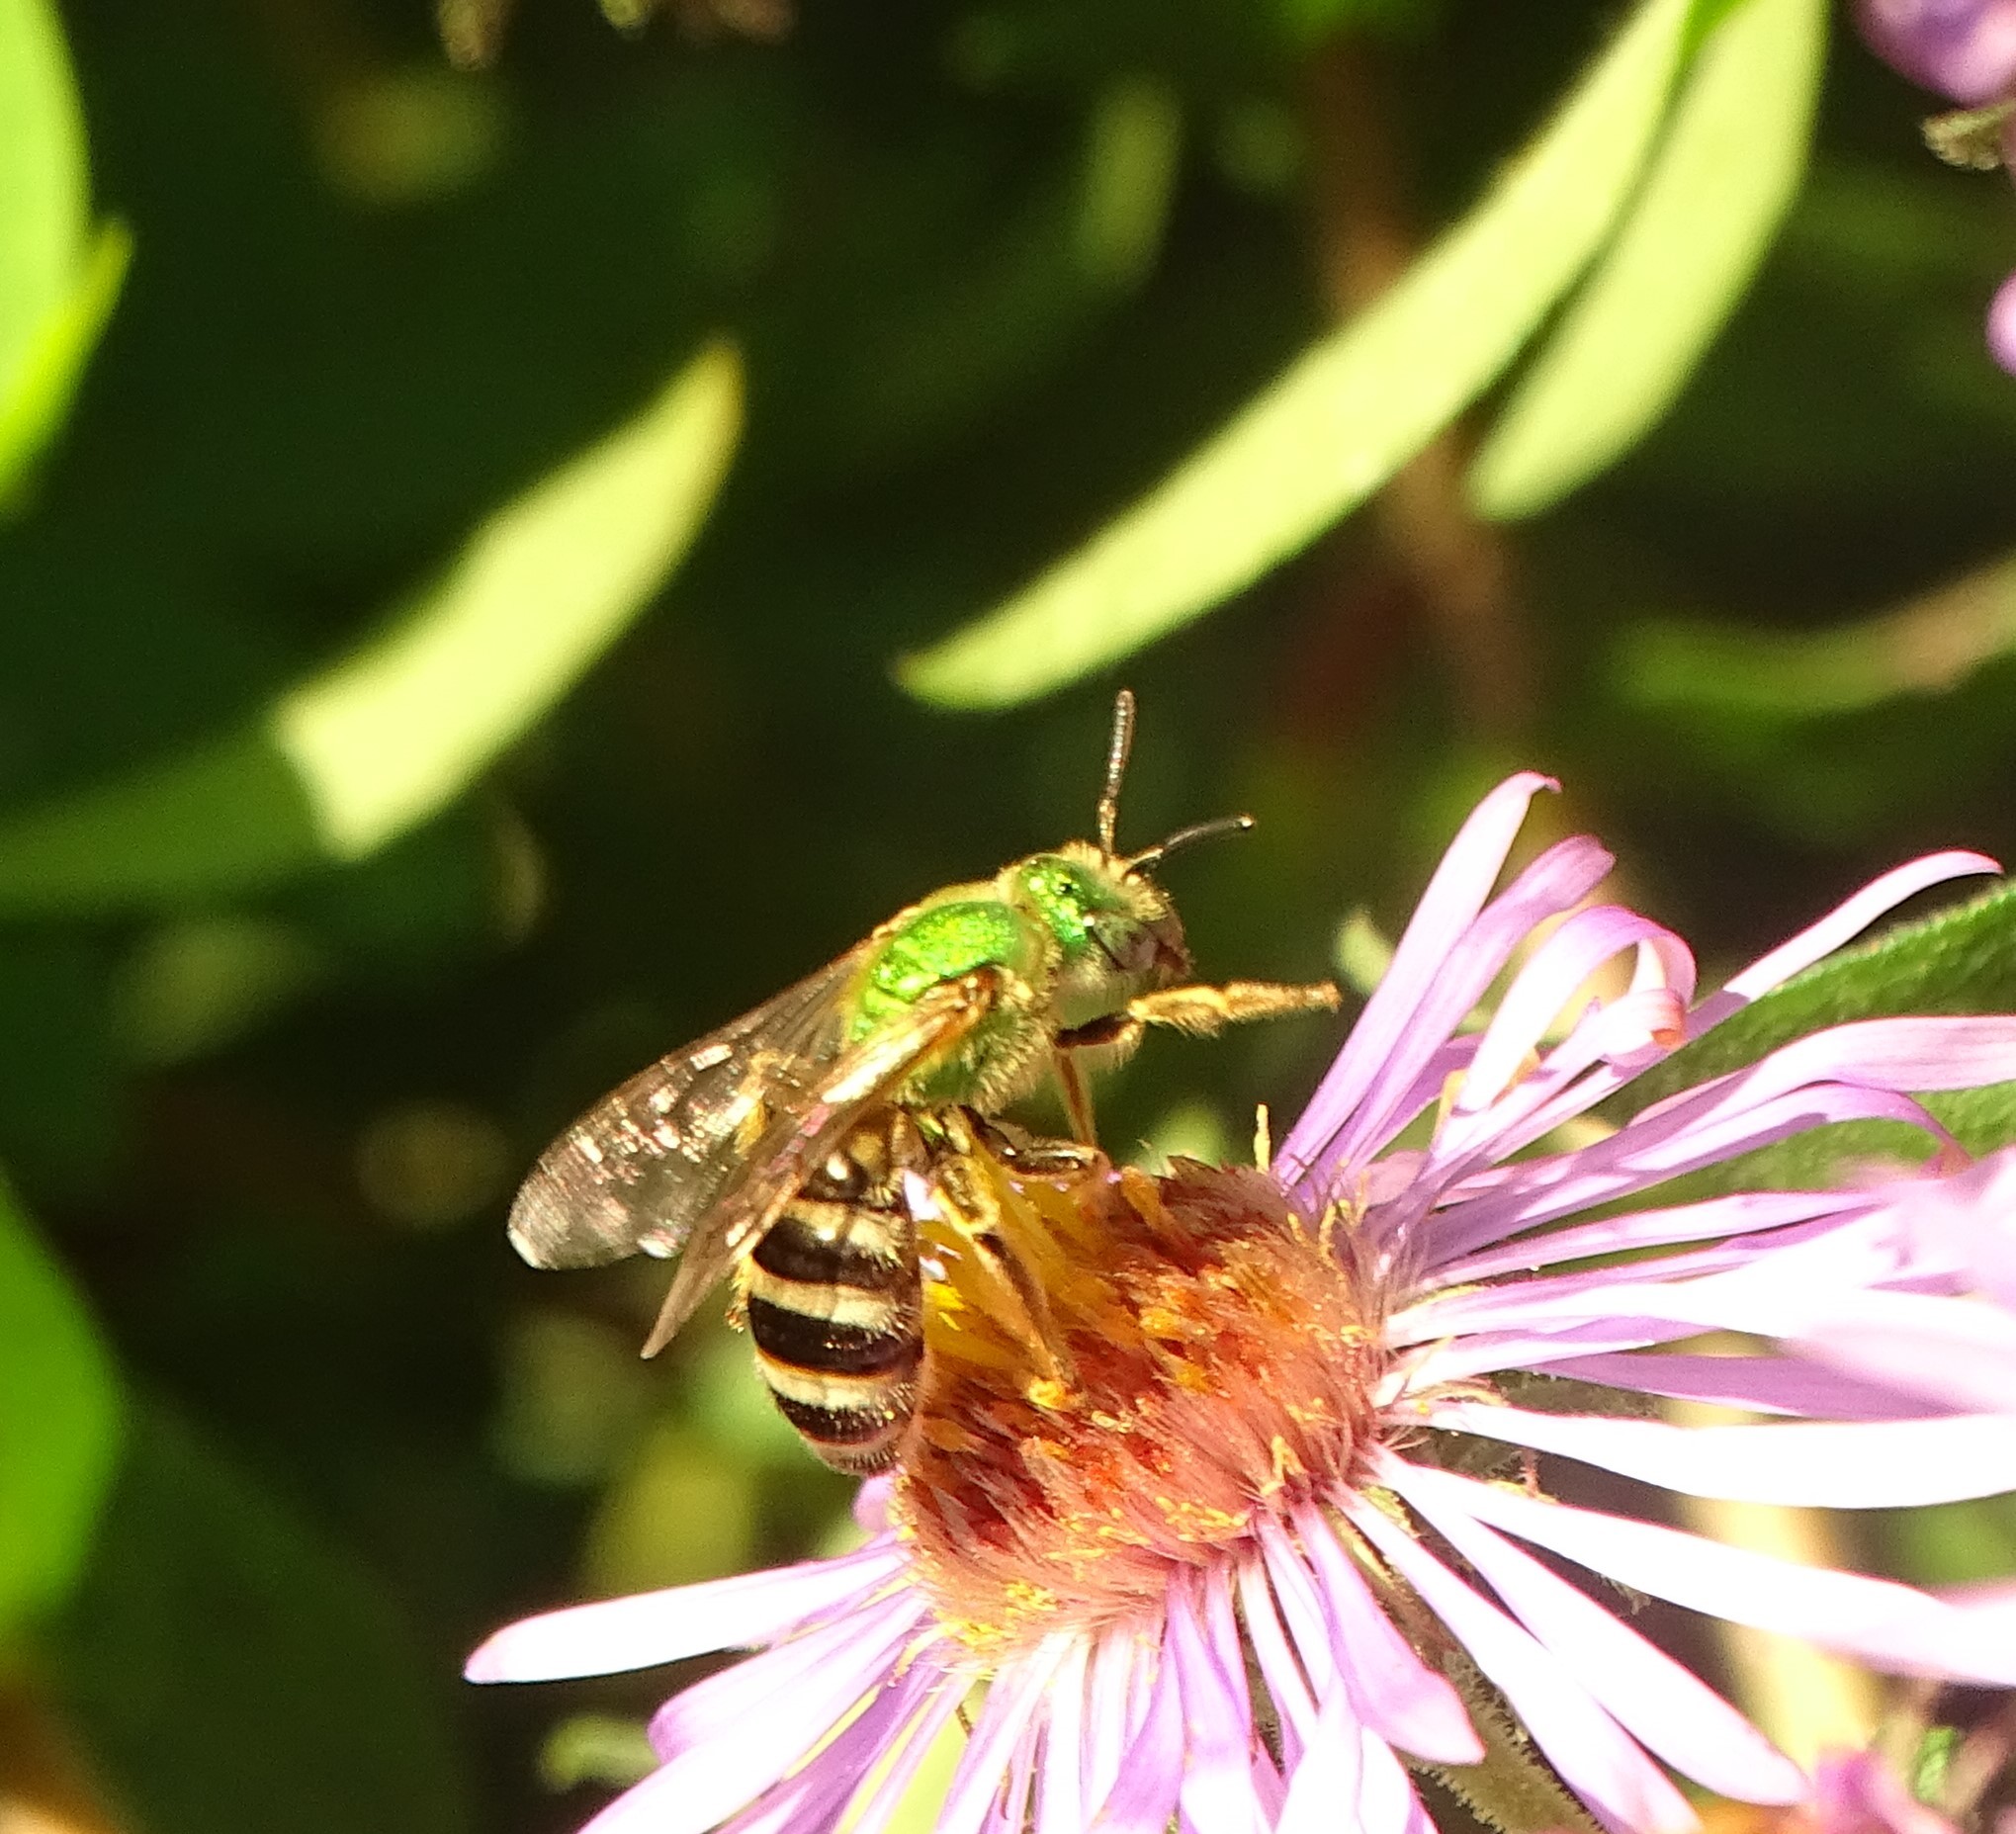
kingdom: Animalia
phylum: Arthropoda
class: Insecta
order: Hymenoptera
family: Halictidae
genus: Agapostemon
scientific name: Agapostemon virescens
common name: Bicolored striped sweat bee
